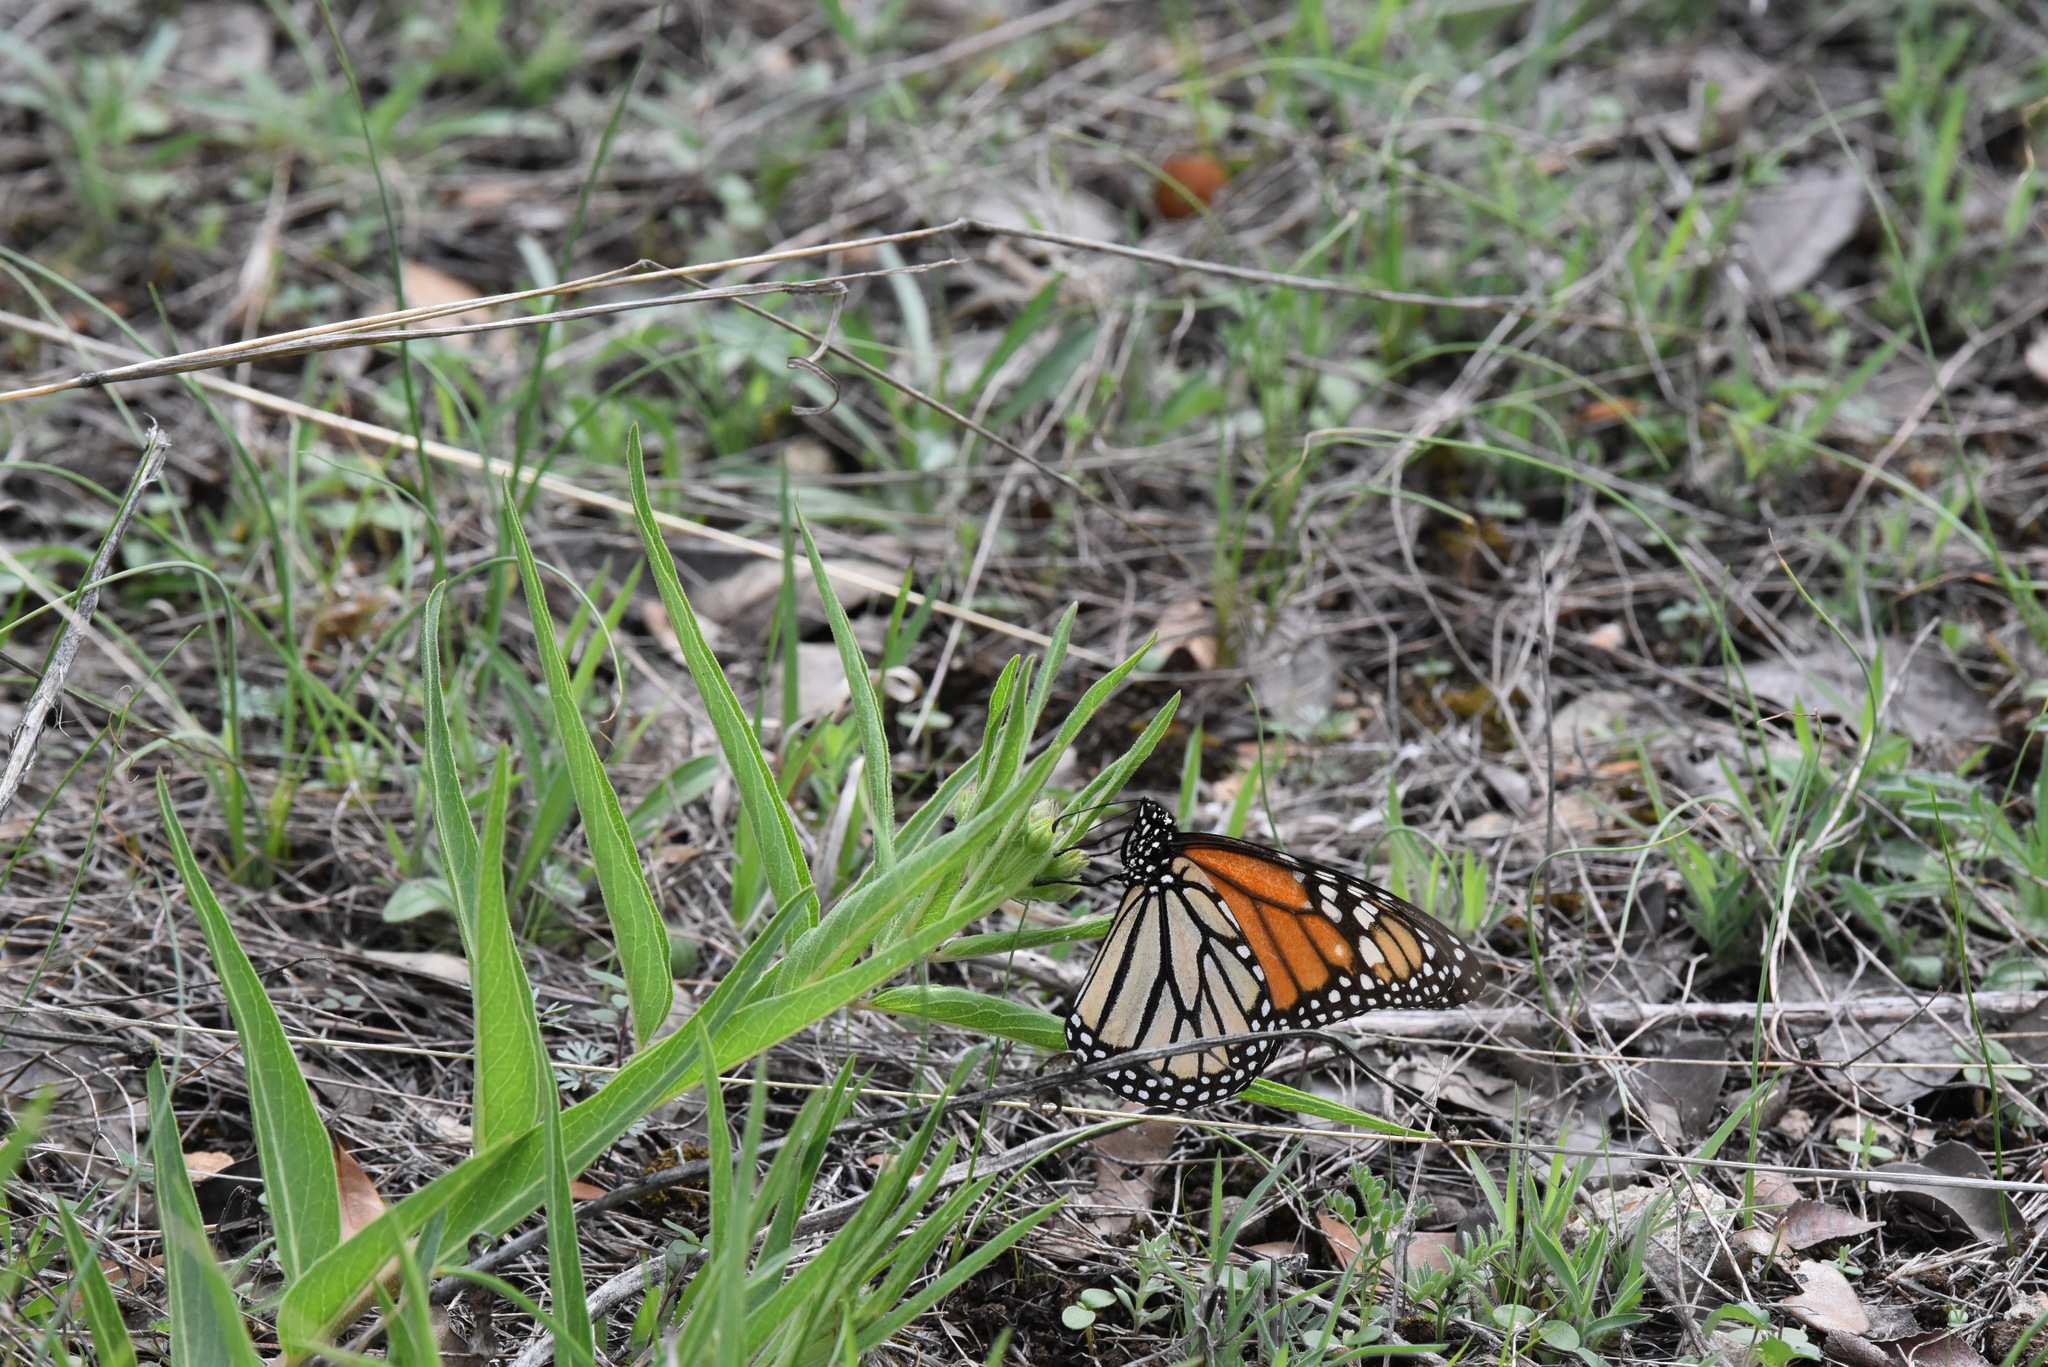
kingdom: Animalia
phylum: Arthropoda
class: Insecta
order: Lepidoptera
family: Nymphalidae
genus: Danaus
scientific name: Danaus plexippus
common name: Monarch
